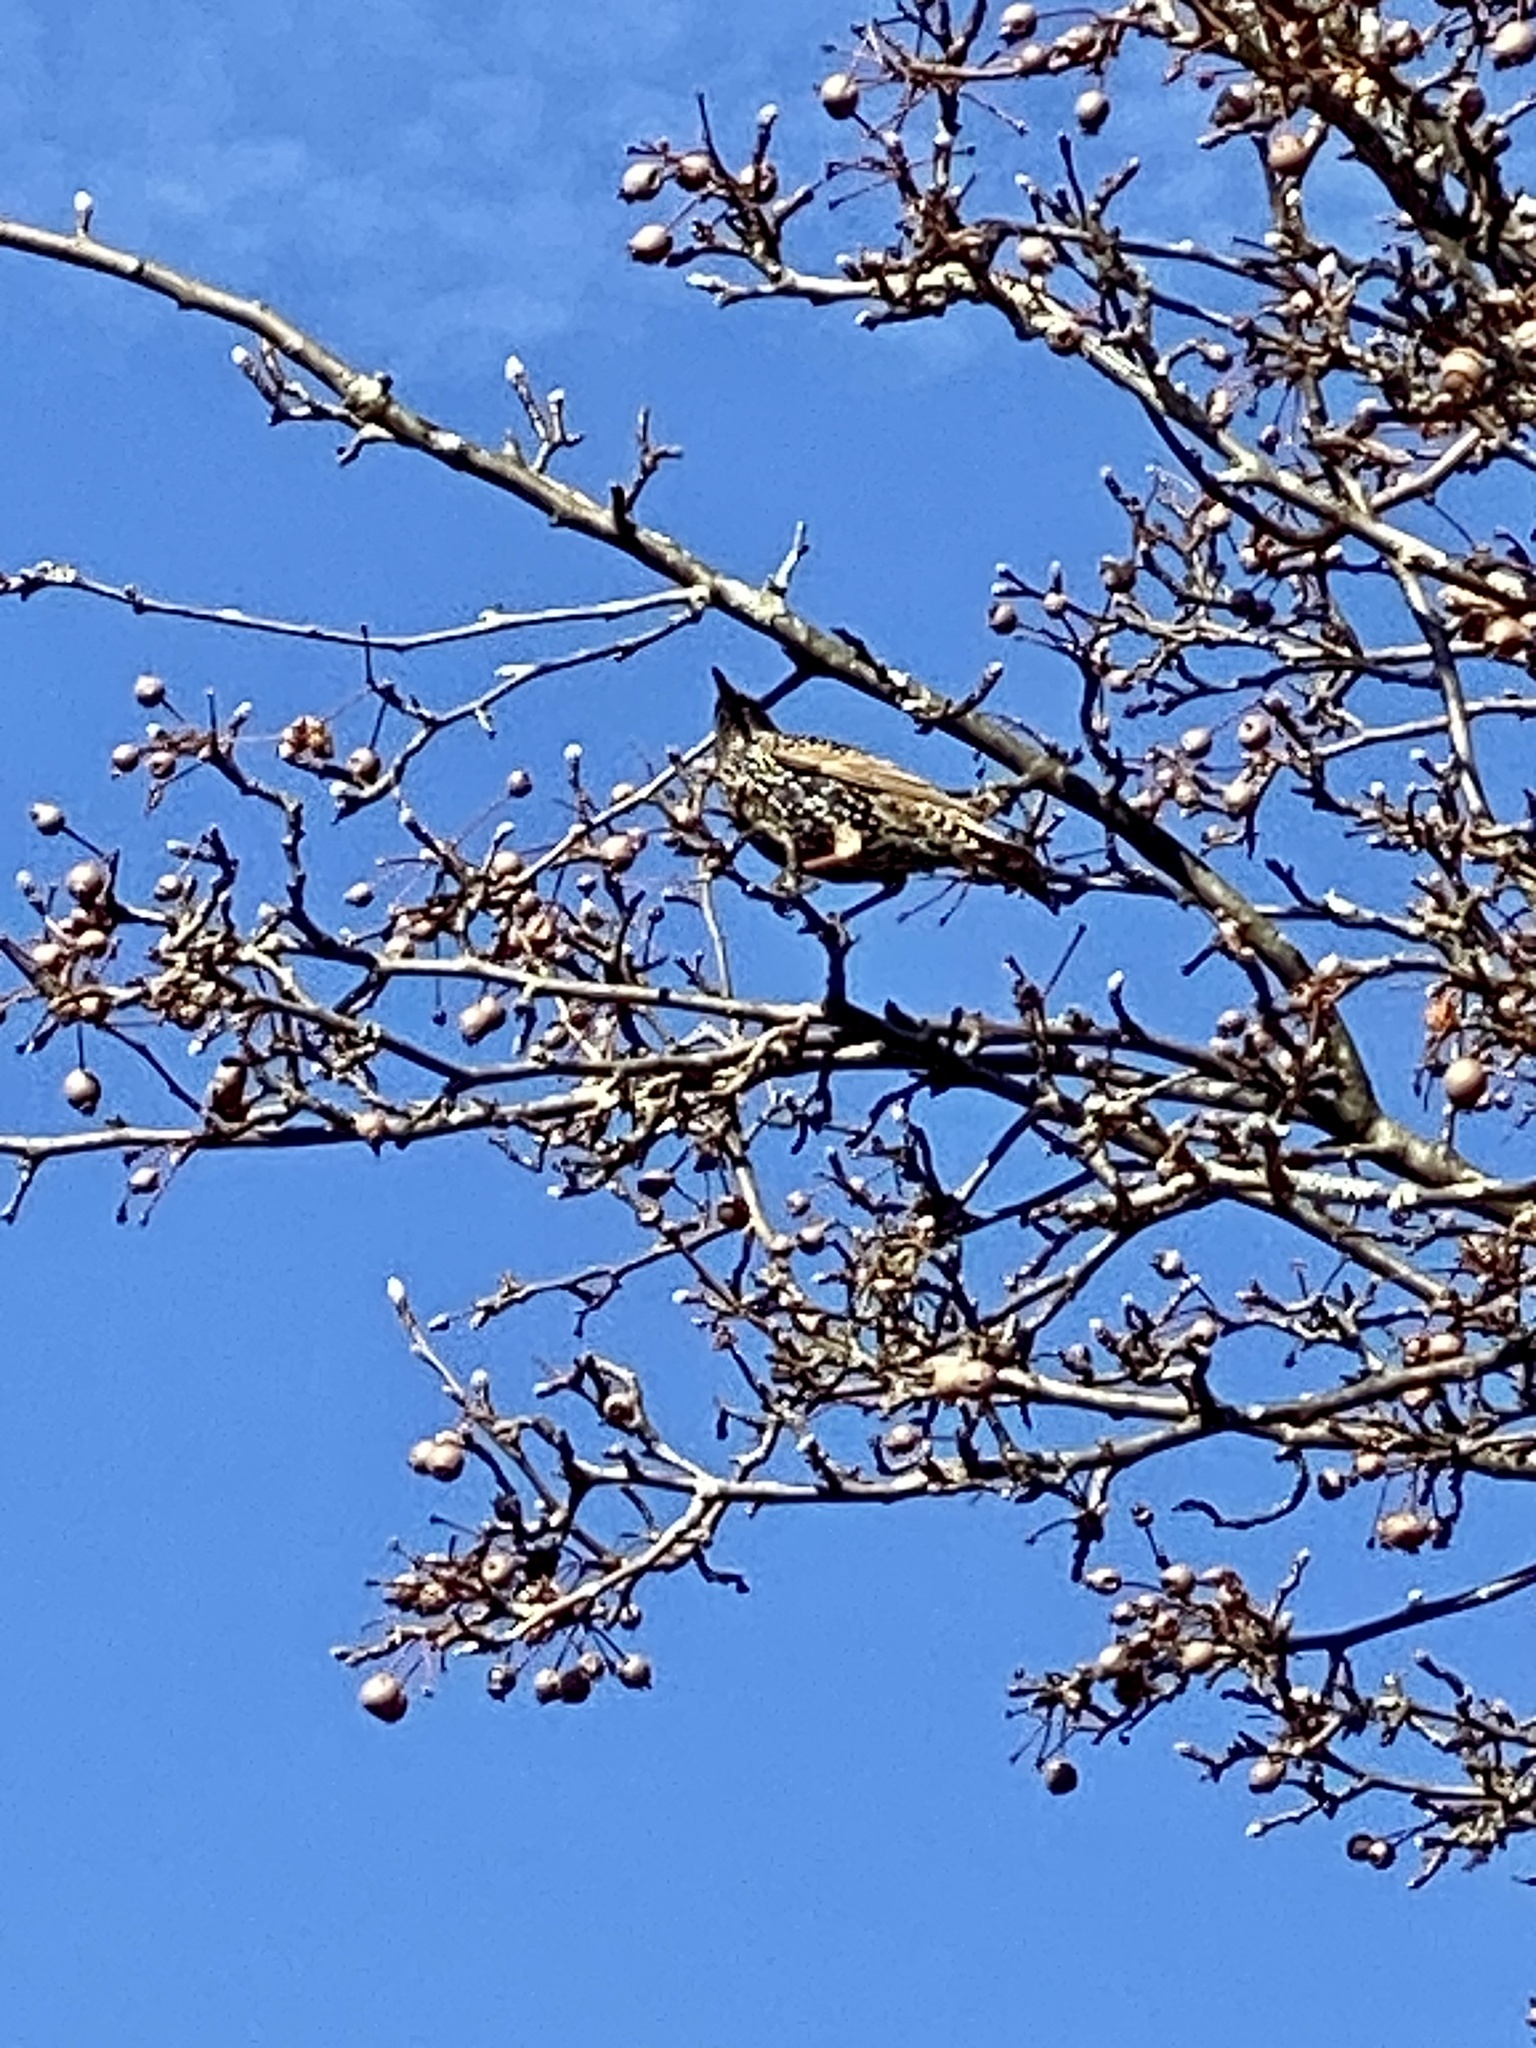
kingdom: Animalia
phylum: Chordata
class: Aves
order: Passeriformes
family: Sturnidae
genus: Sturnus
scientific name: Sturnus vulgaris
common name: Common starling
